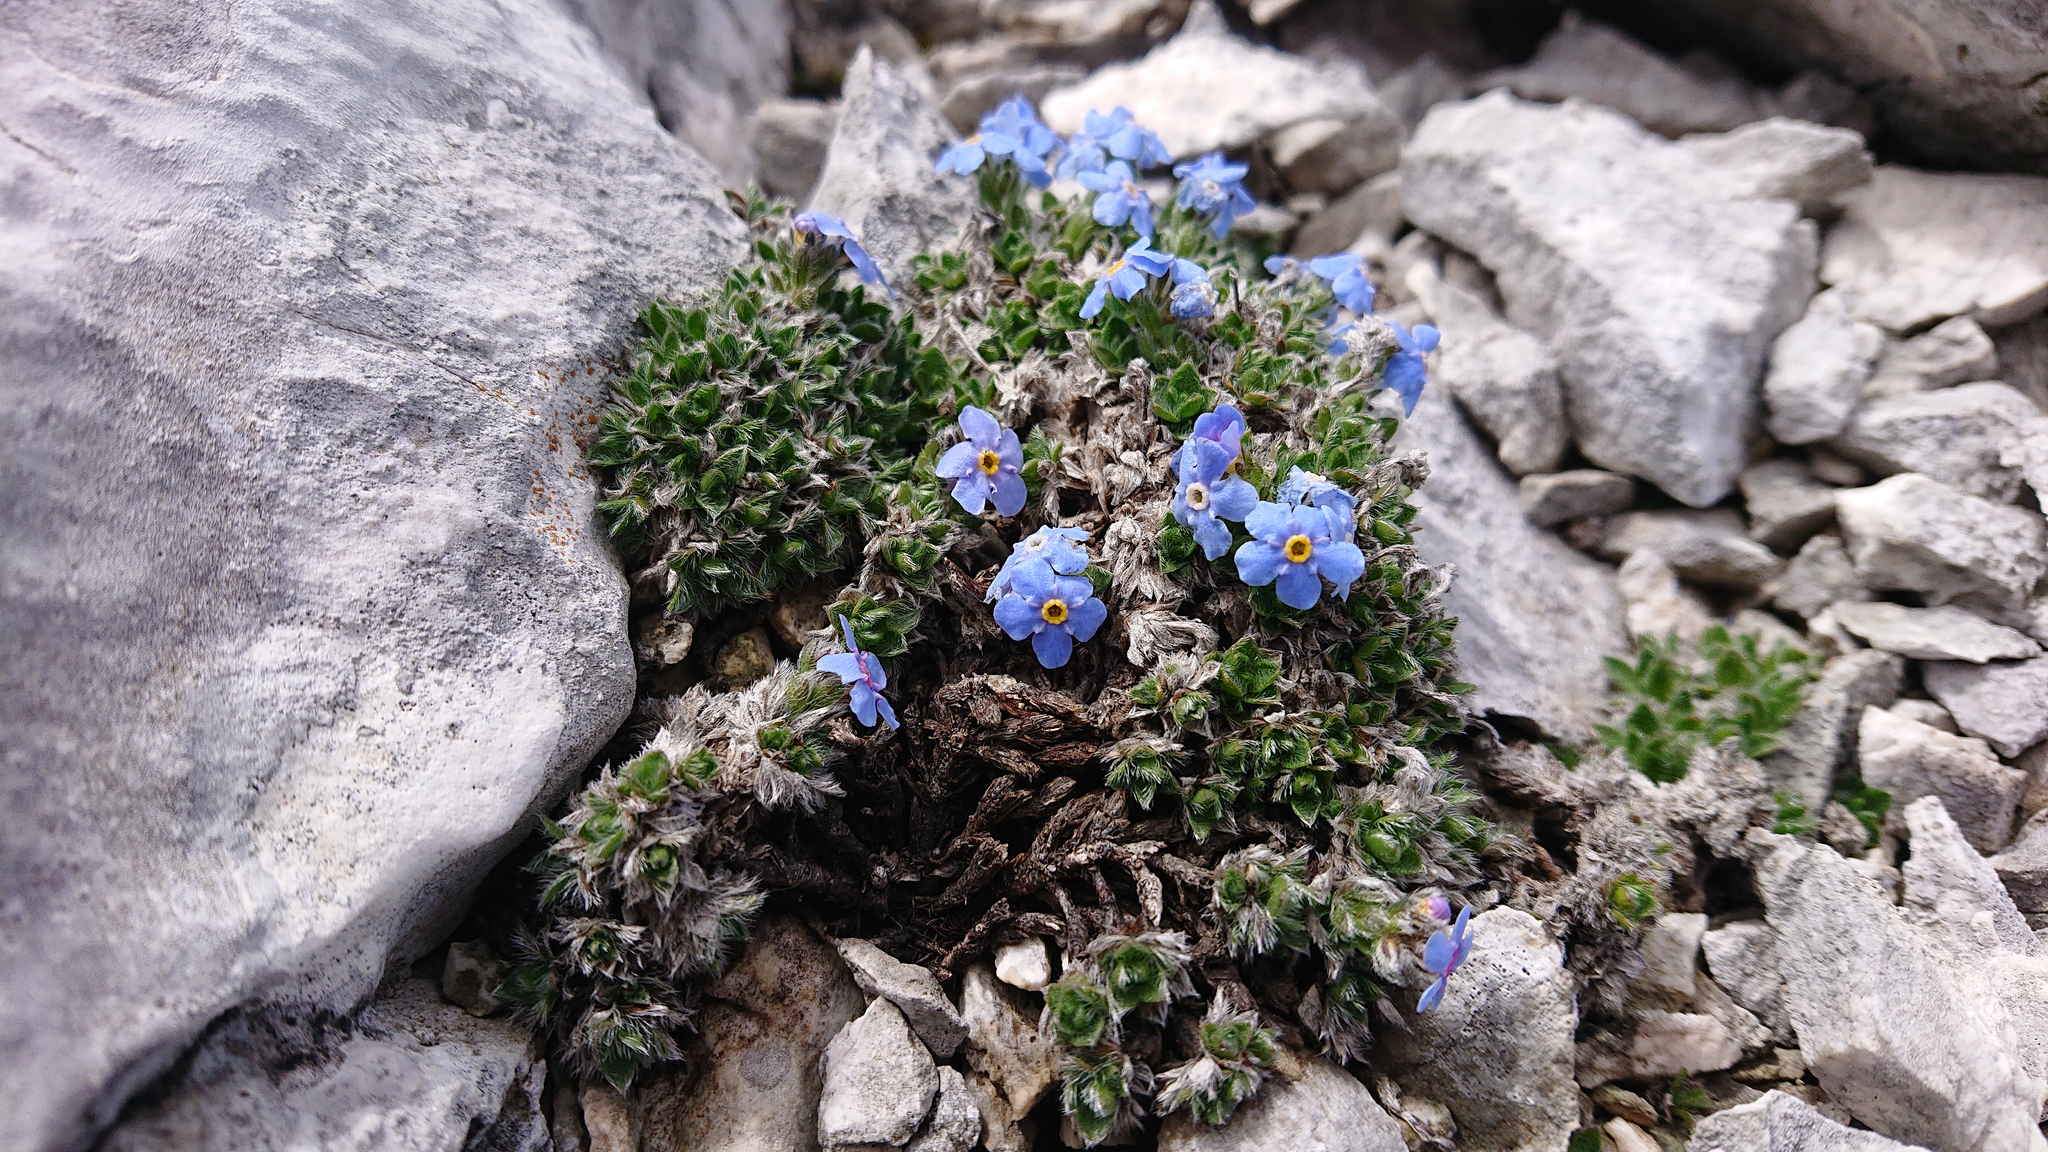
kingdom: Plantae
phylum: Tracheophyta
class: Magnoliopsida
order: Boraginales
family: Boraginaceae
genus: Eritrichium
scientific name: Eritrichium nanum
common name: King-of-the-alps
